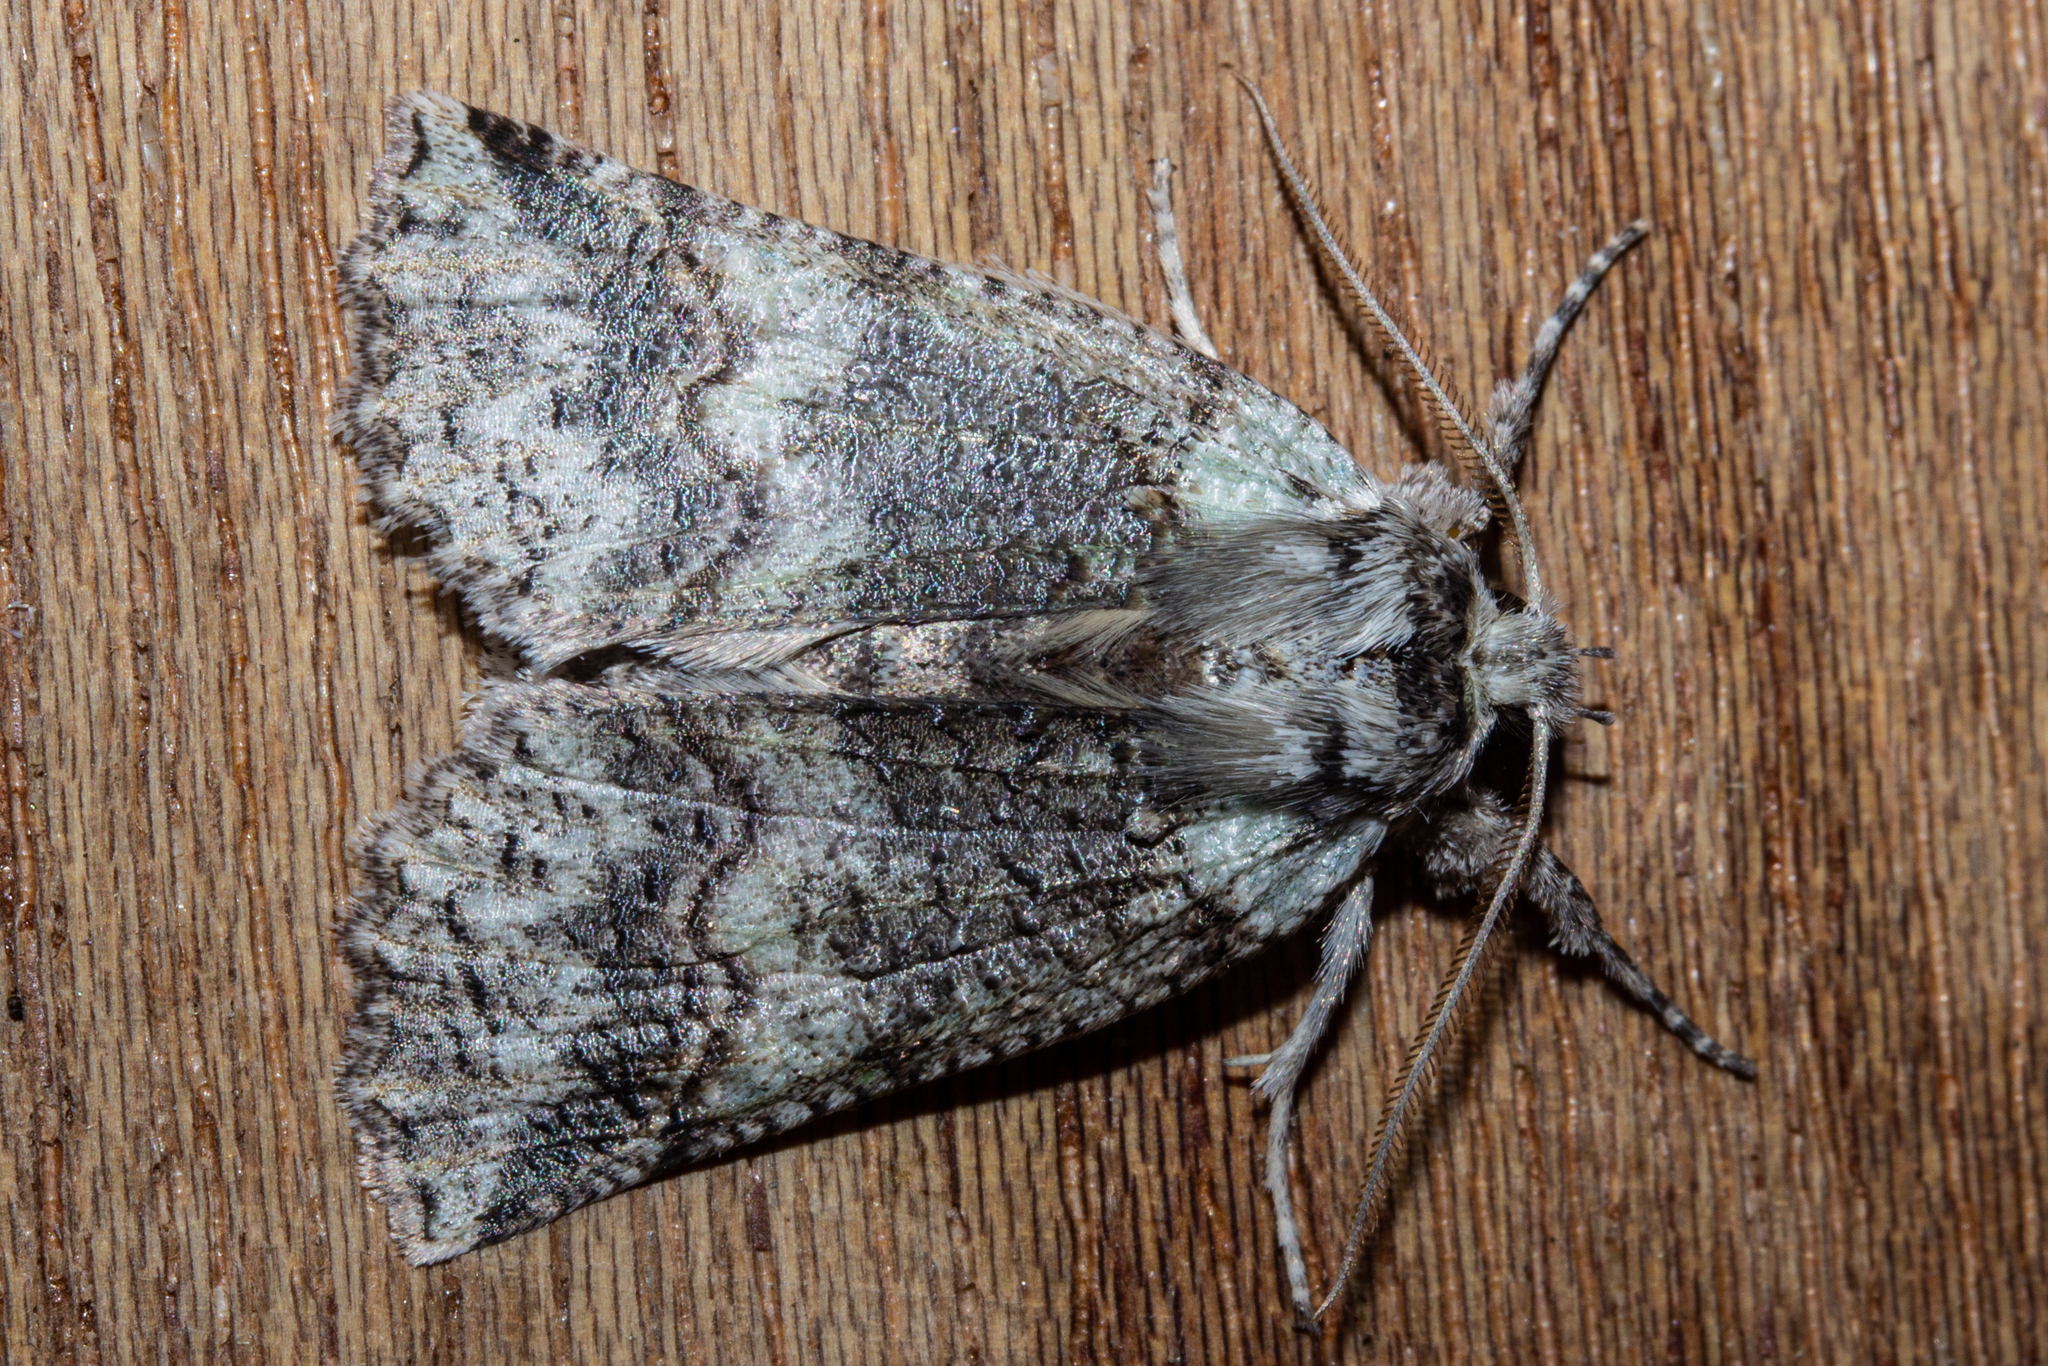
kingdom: Animalia
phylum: Arthropoda
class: Insecta
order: Lepidoptera
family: Geometridae
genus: Declana
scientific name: Declana floccosa
